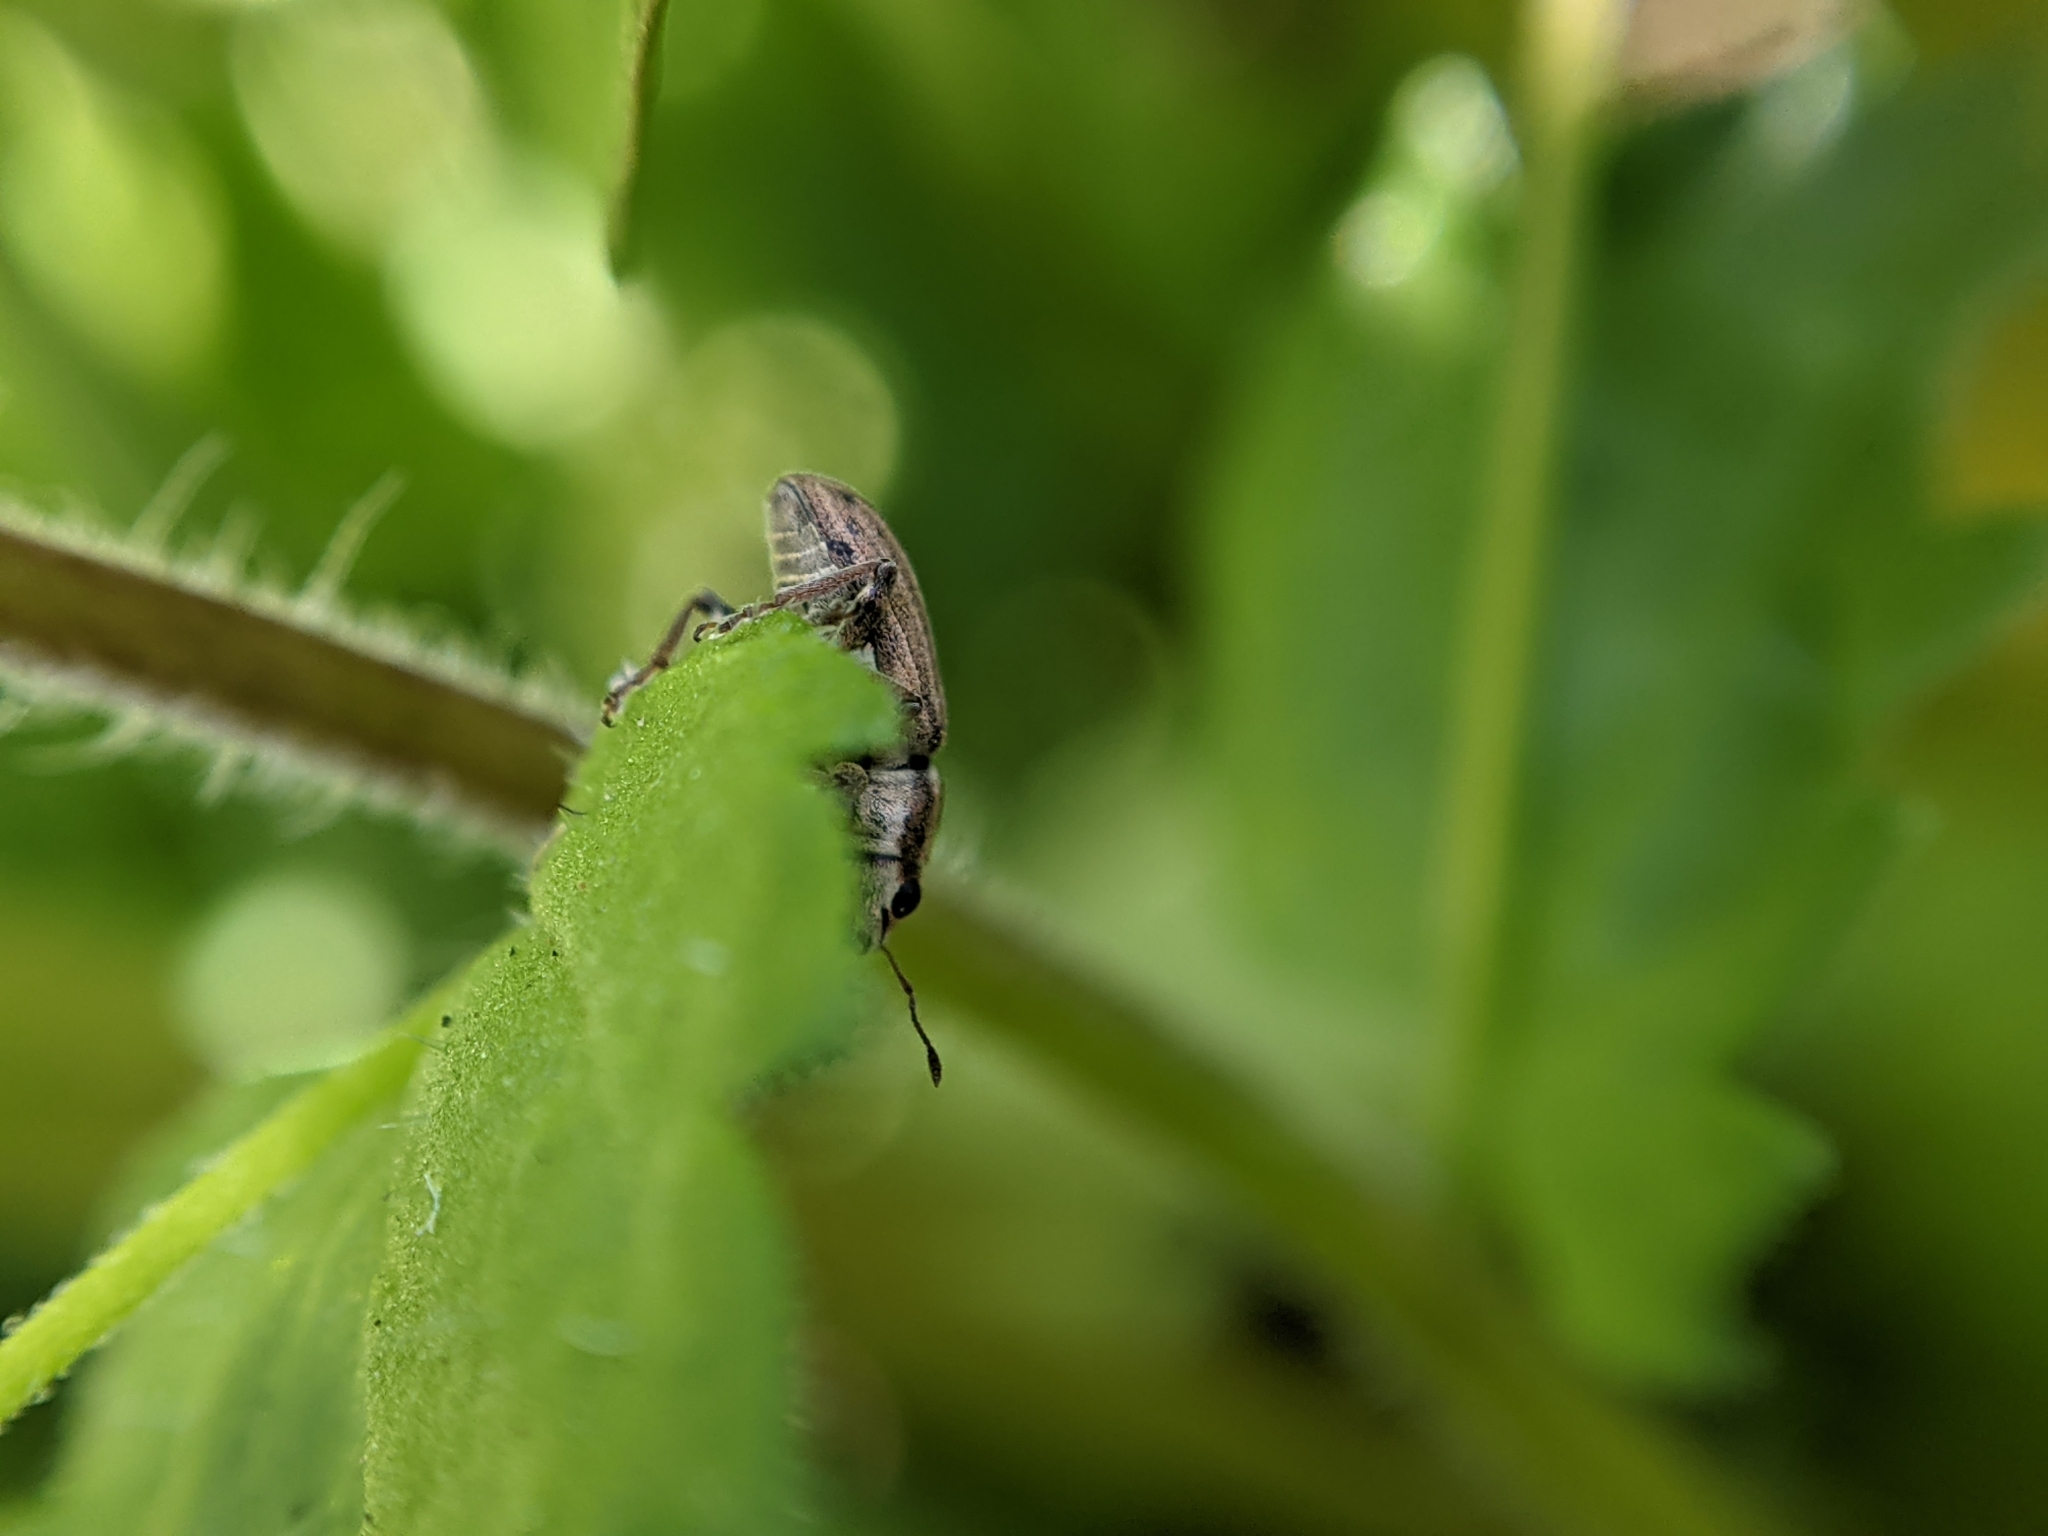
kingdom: Animalia
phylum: Arthropoda
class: Insecta
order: Coleoptera
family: Curculionidae
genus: Sitona
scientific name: Sitona lineatus
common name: Weevil
